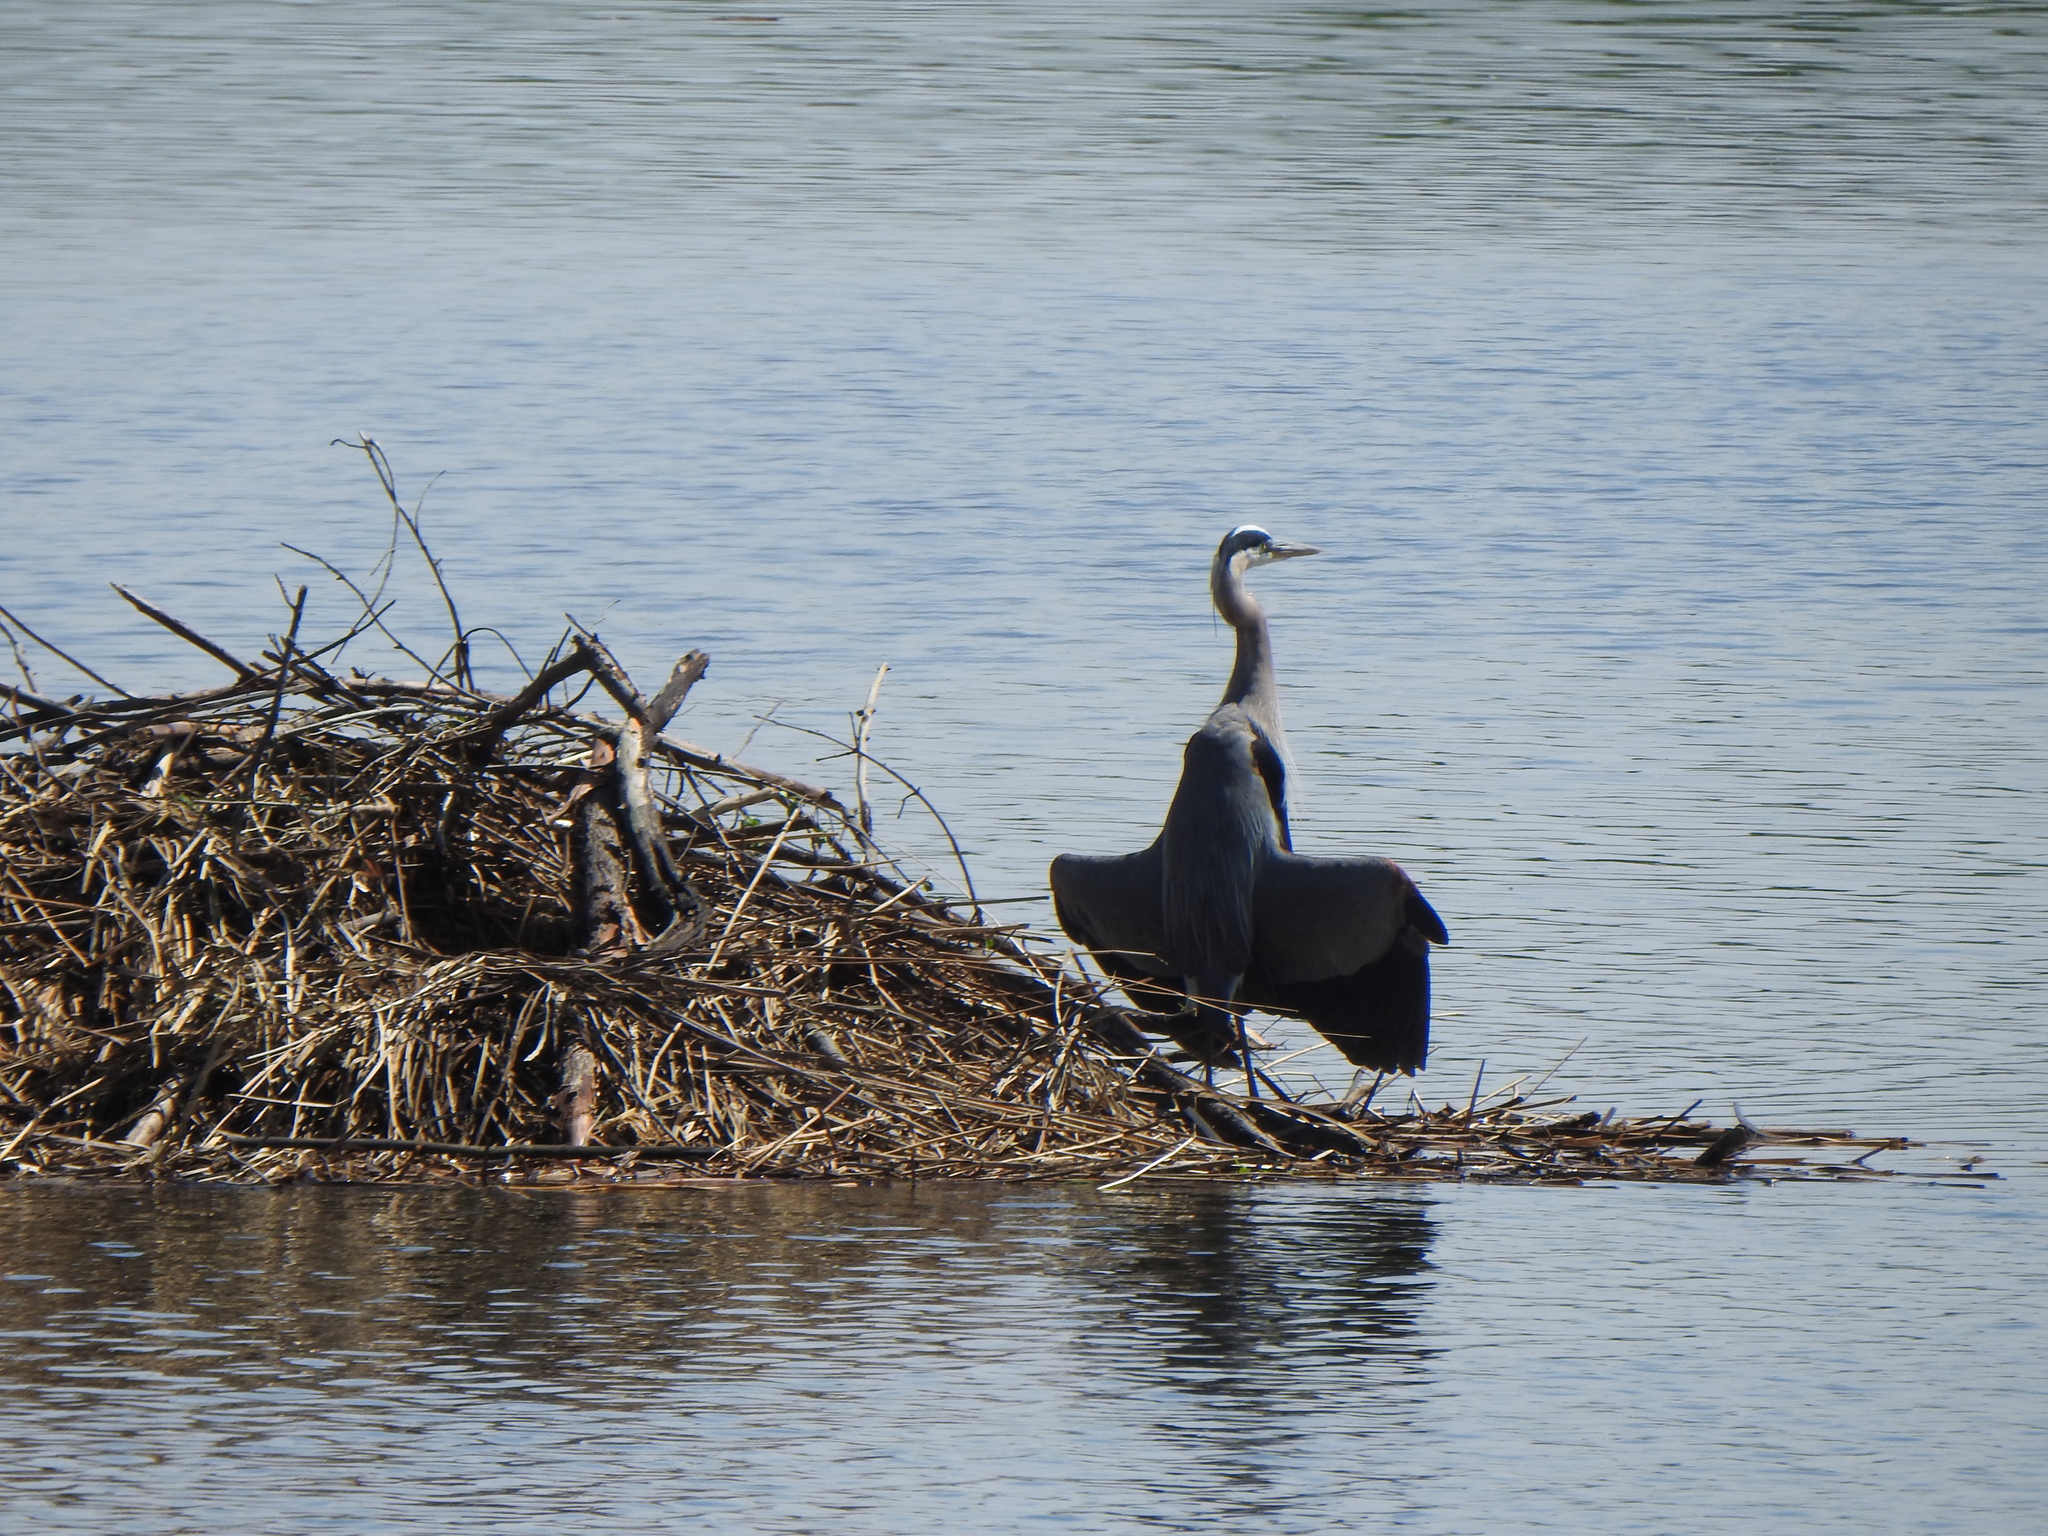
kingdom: Animalia
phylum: Chordata
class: Aves
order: Pelecaniformes
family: Ardeidae
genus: Ardea
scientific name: Ardea herodias
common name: Great blue heron
